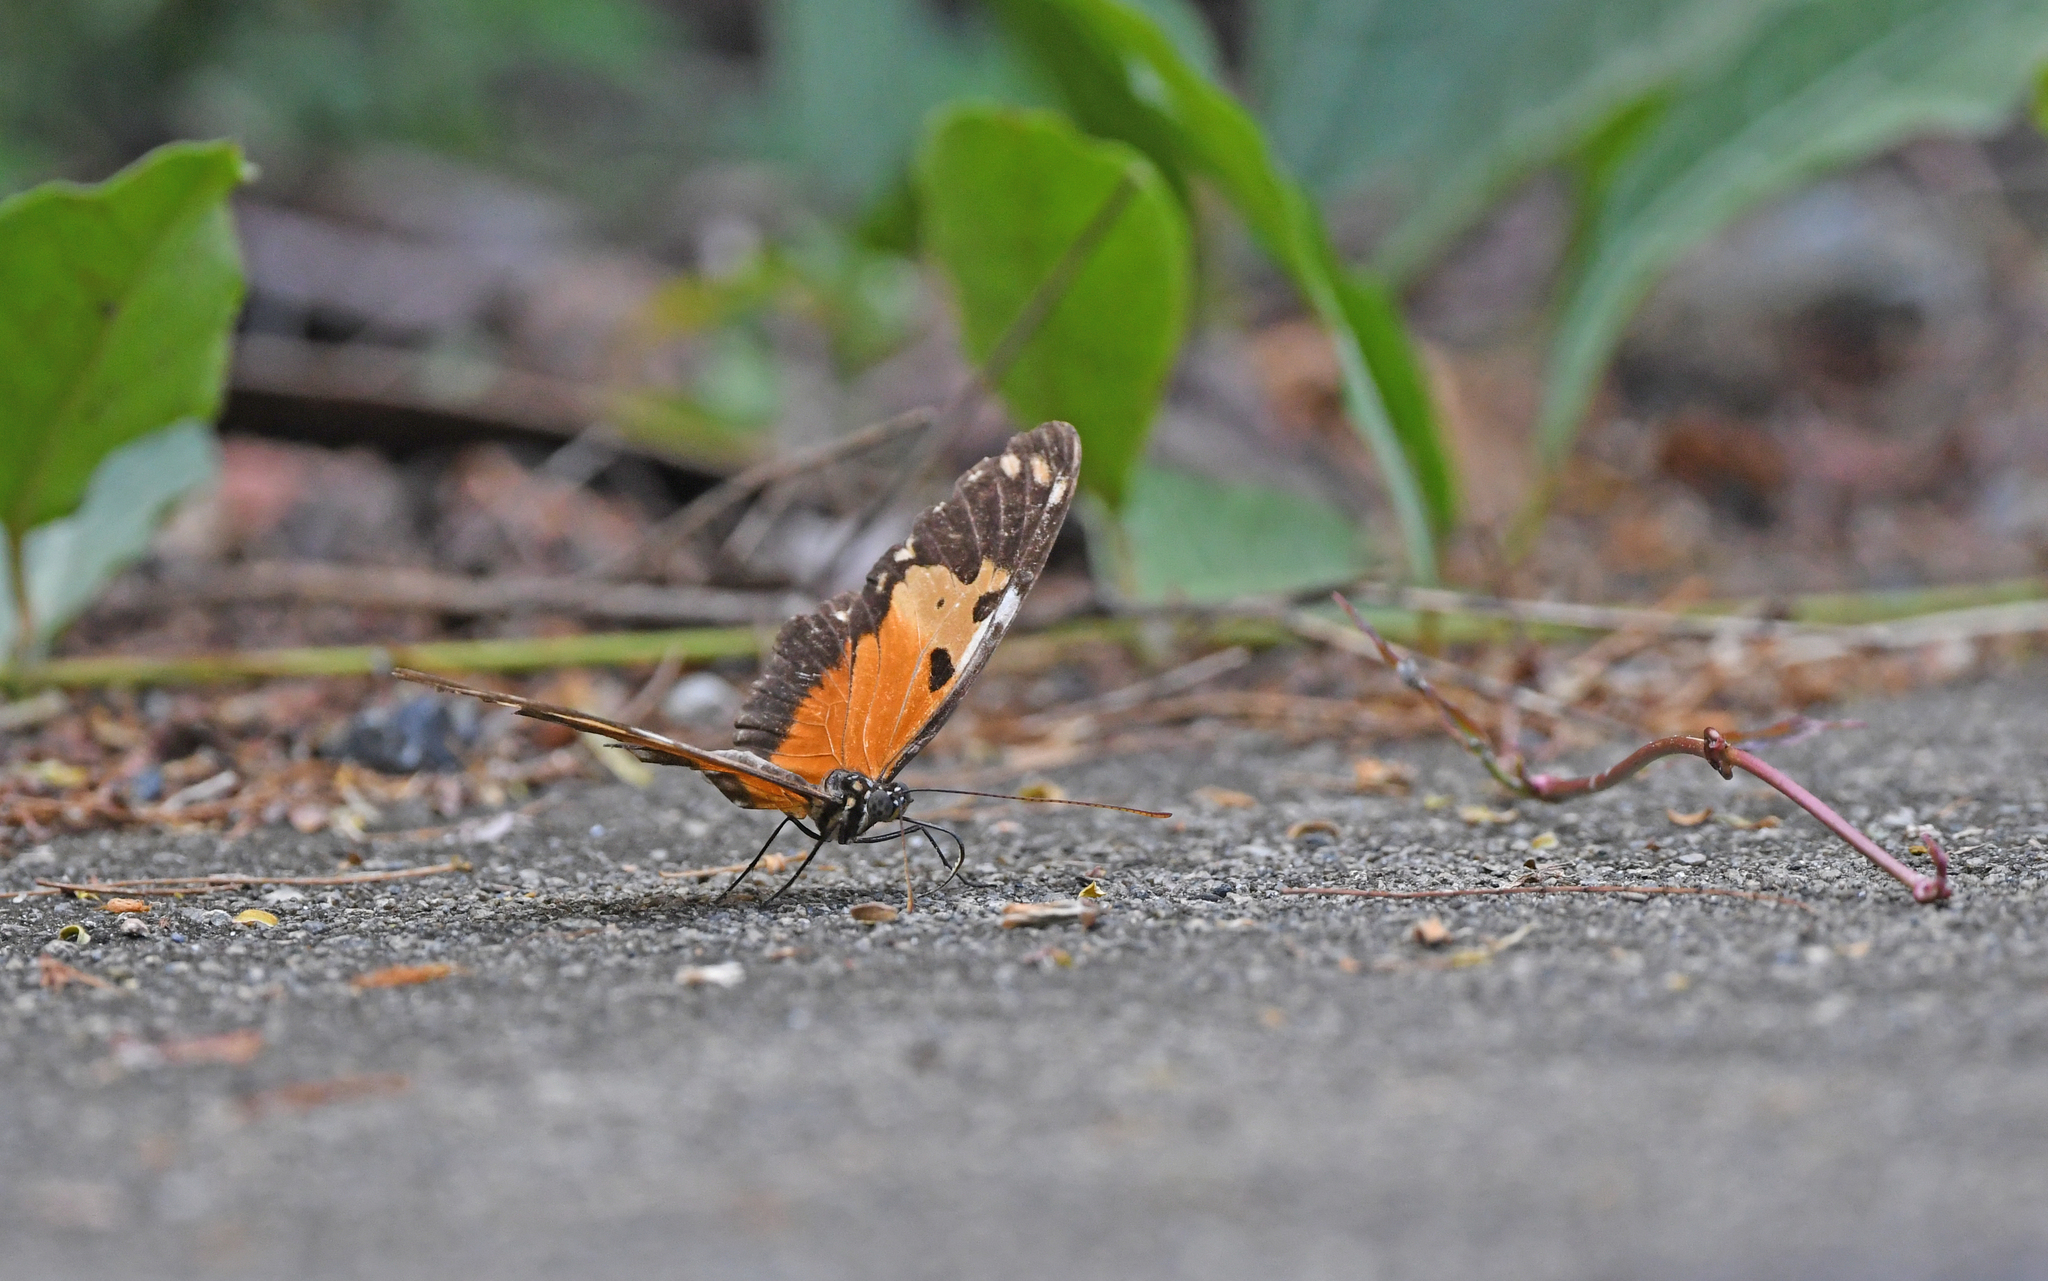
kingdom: Animalia
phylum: Arthropoda
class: Insecta
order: Lepidoptera
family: Nymphalidae
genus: Heliconius
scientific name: Heliconius hecale
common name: Tiger longwing
